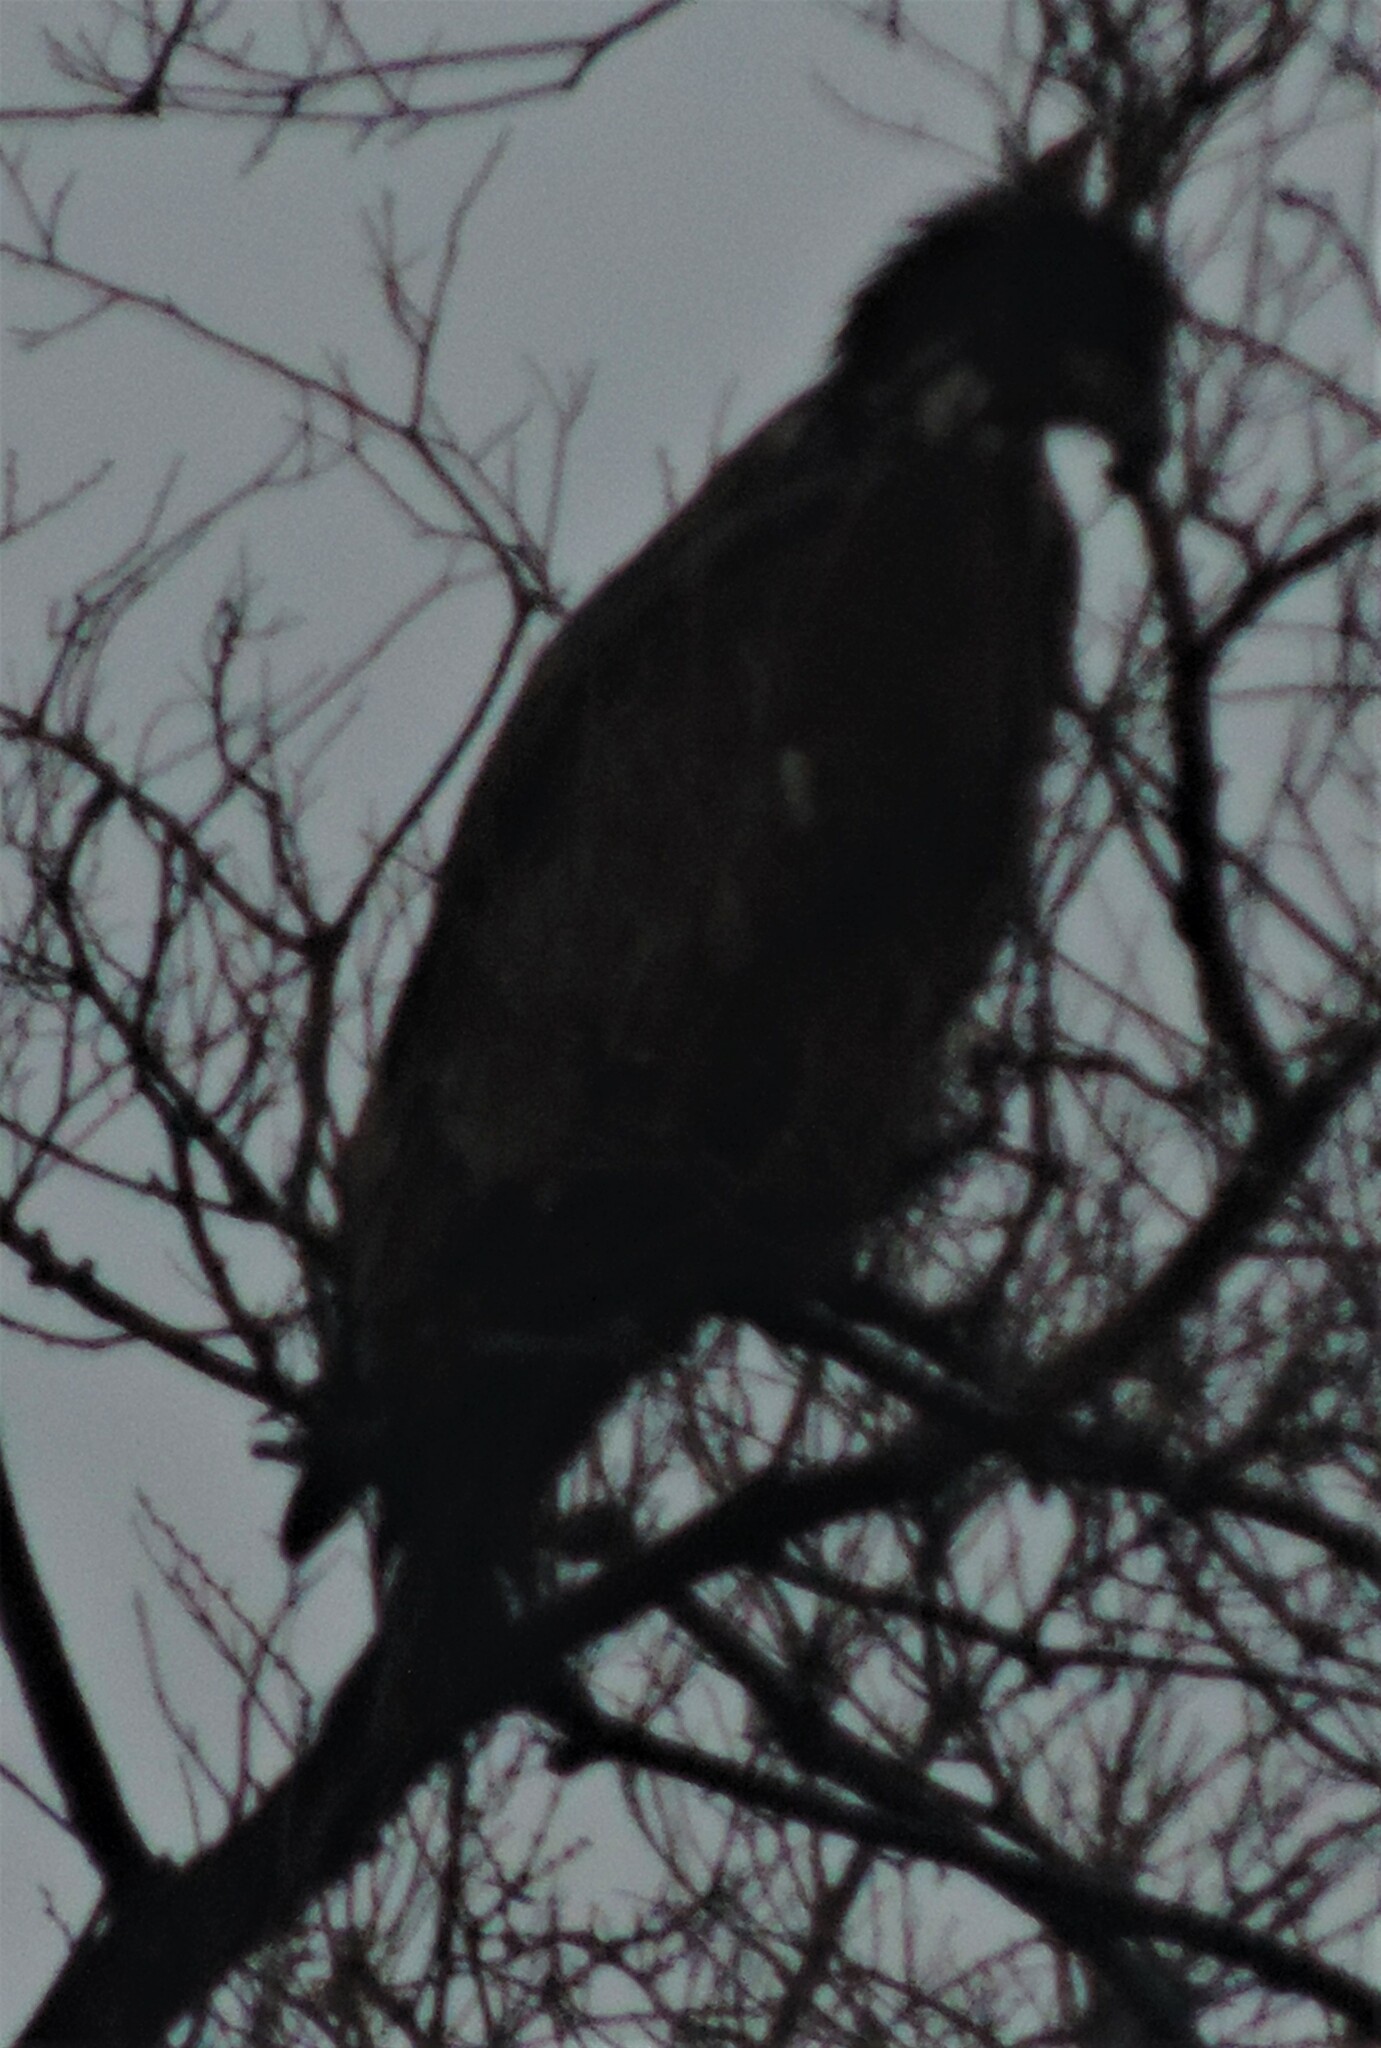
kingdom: Animalia
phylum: Chordata
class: Aves
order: Accipitriformes
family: Accipitridae
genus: Haliaeetus
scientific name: Haliaeetus leucocephalus
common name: Bald eagle
